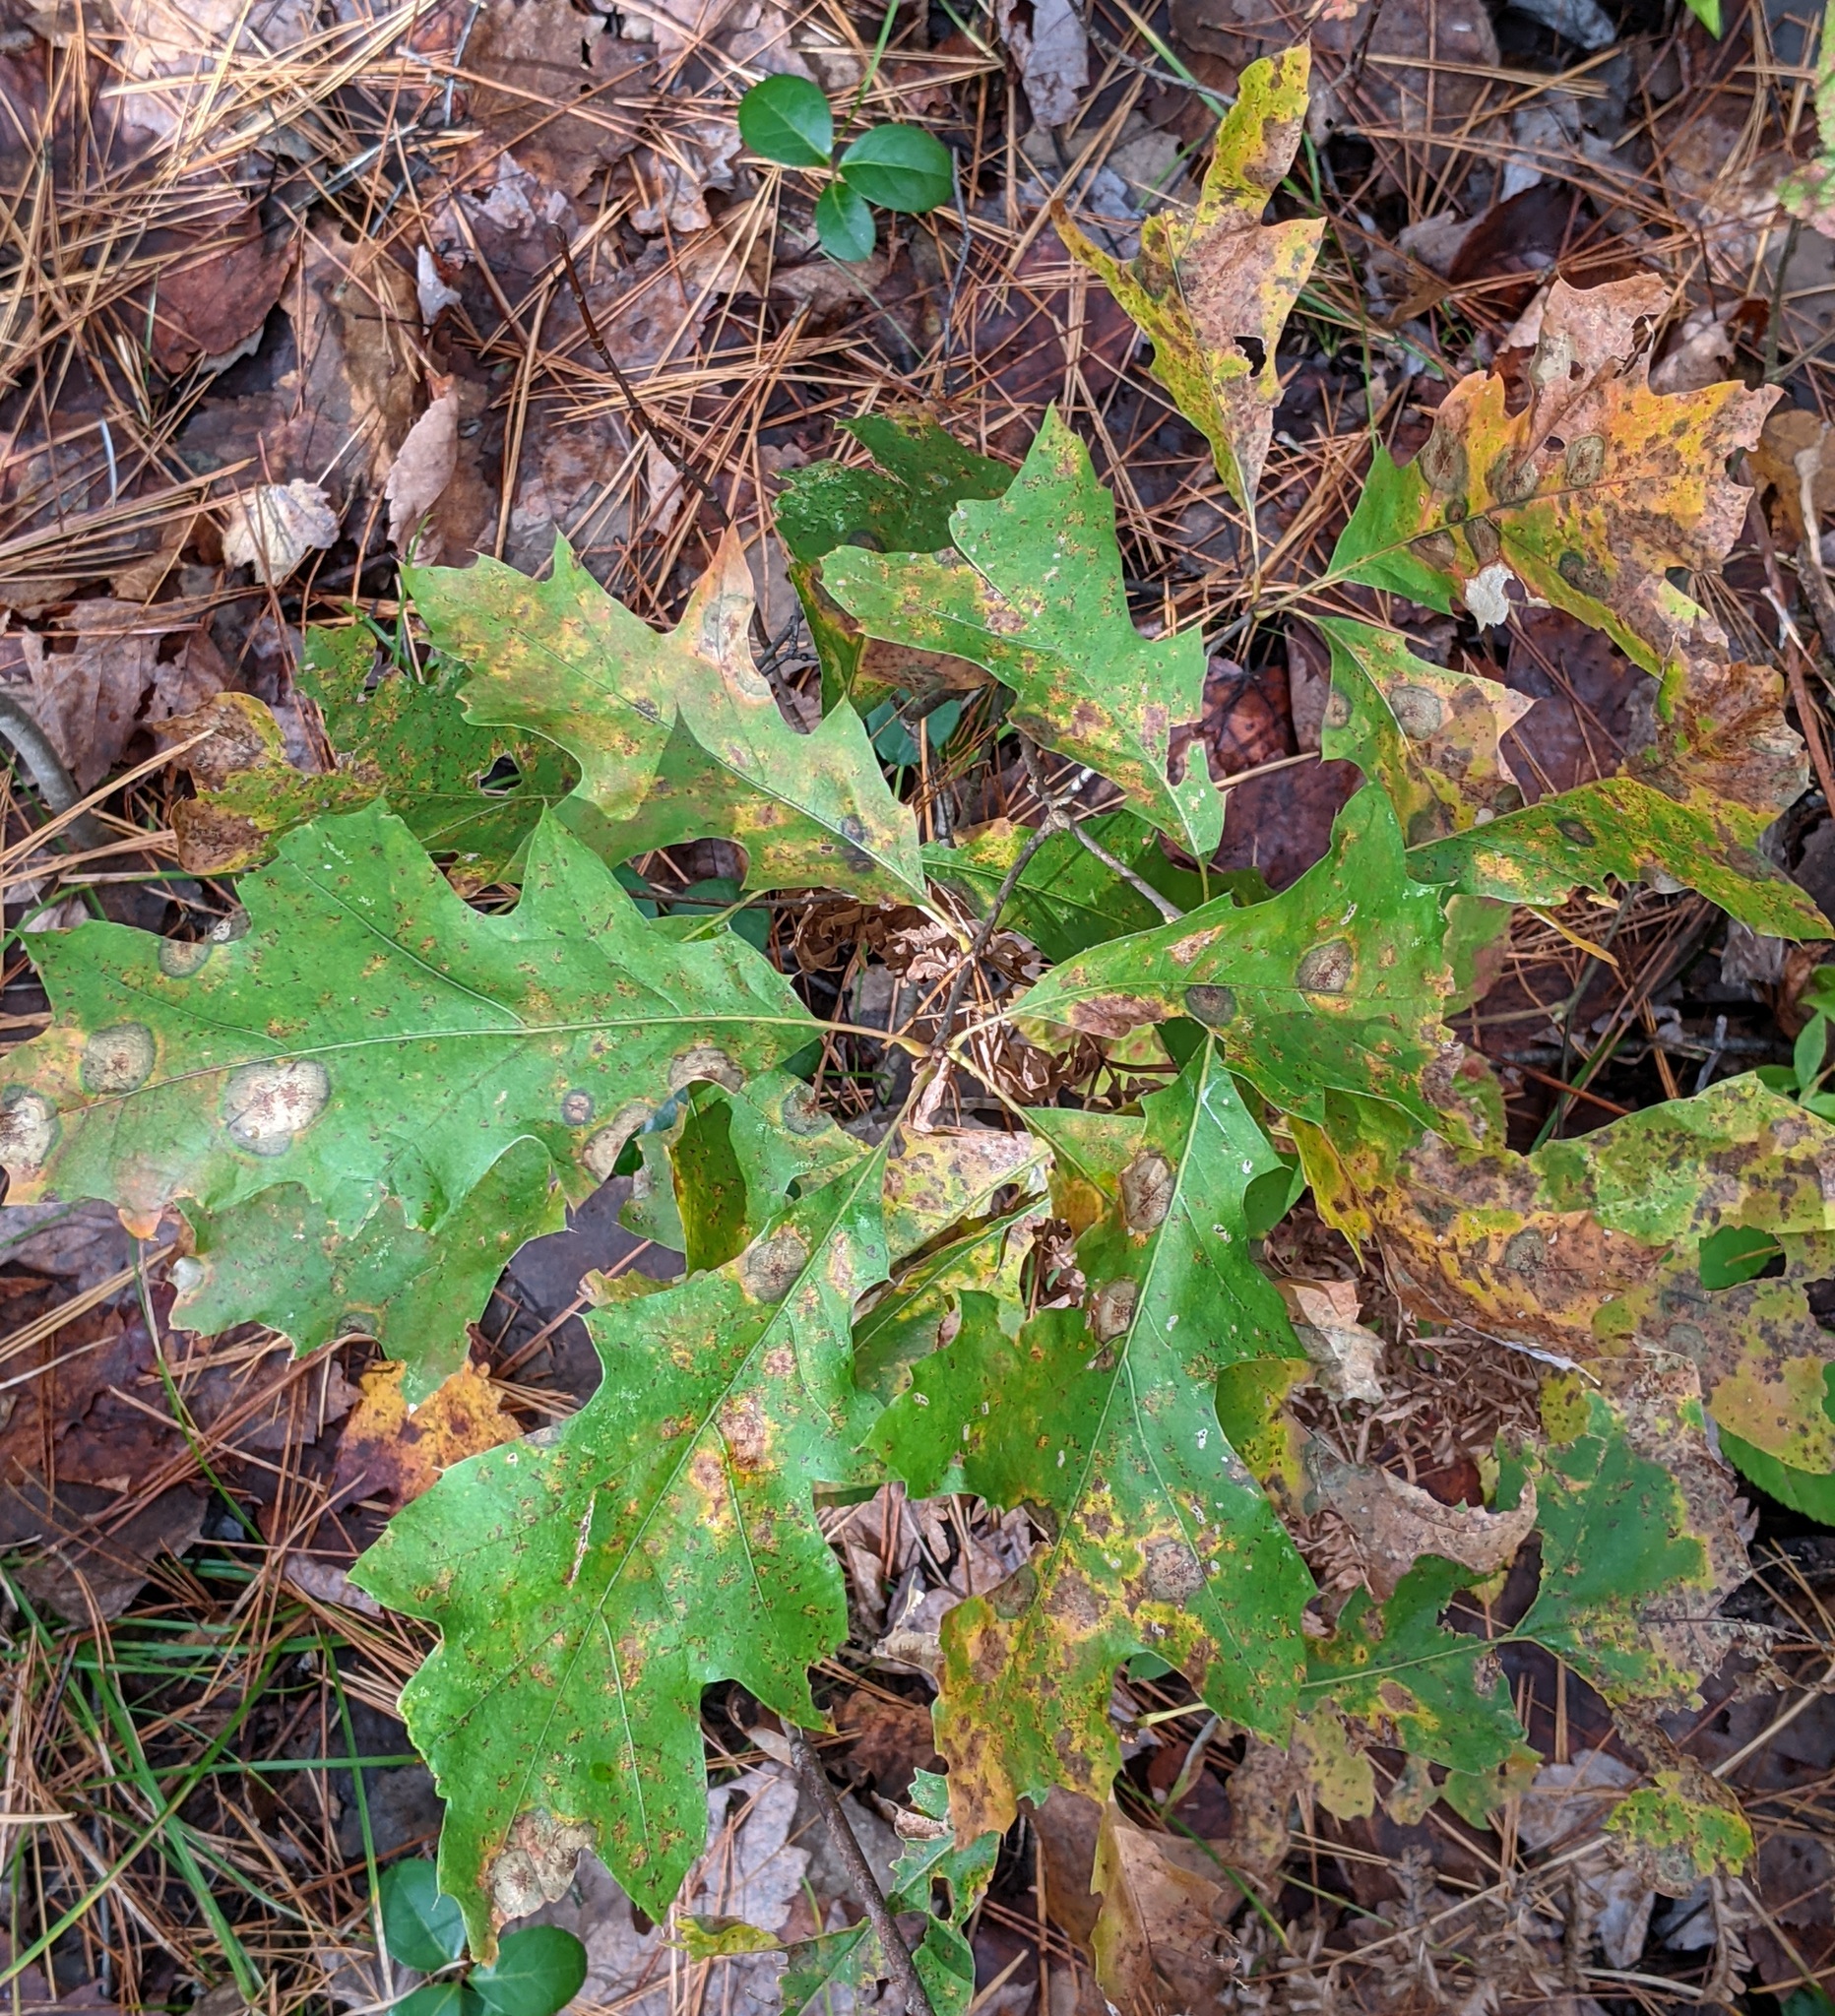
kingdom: Plantae
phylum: Tracheophyta
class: Magnoliopsida
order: Fagales
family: Fagaceae
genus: Quercus
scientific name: Quercus rubra
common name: Red oak
